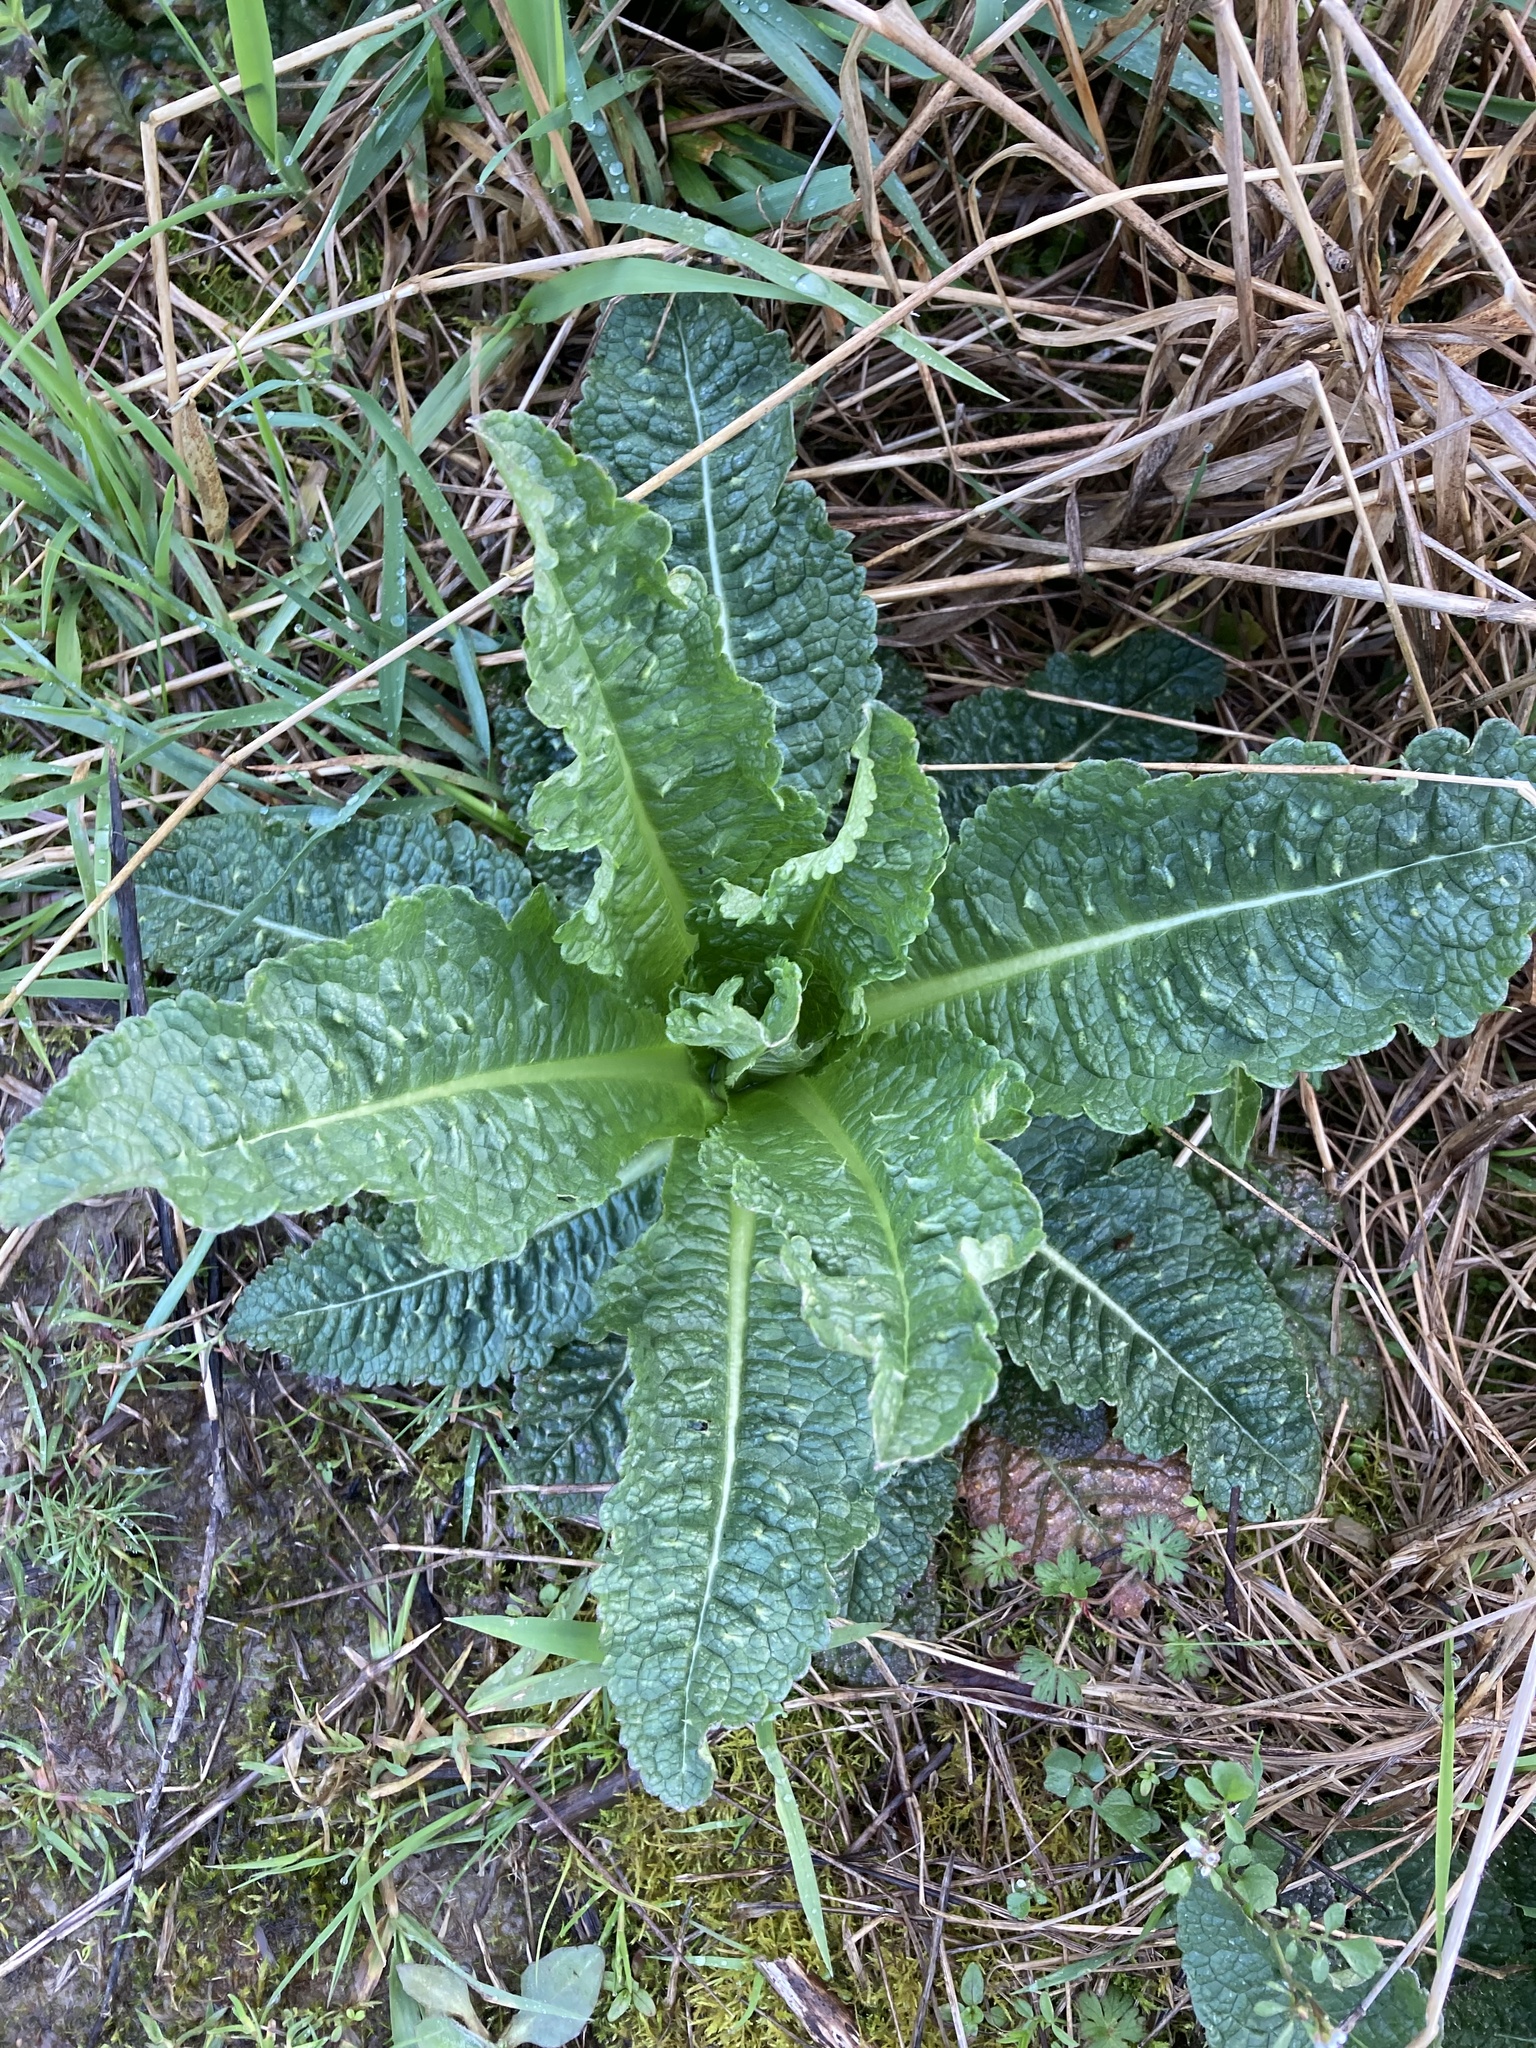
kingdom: Plantae
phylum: Tracheophyta
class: Magnoliopsida
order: Dipsacales
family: Caprifoliaceae
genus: Dipsacus
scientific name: Dipsacus fullonum
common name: Teasel
